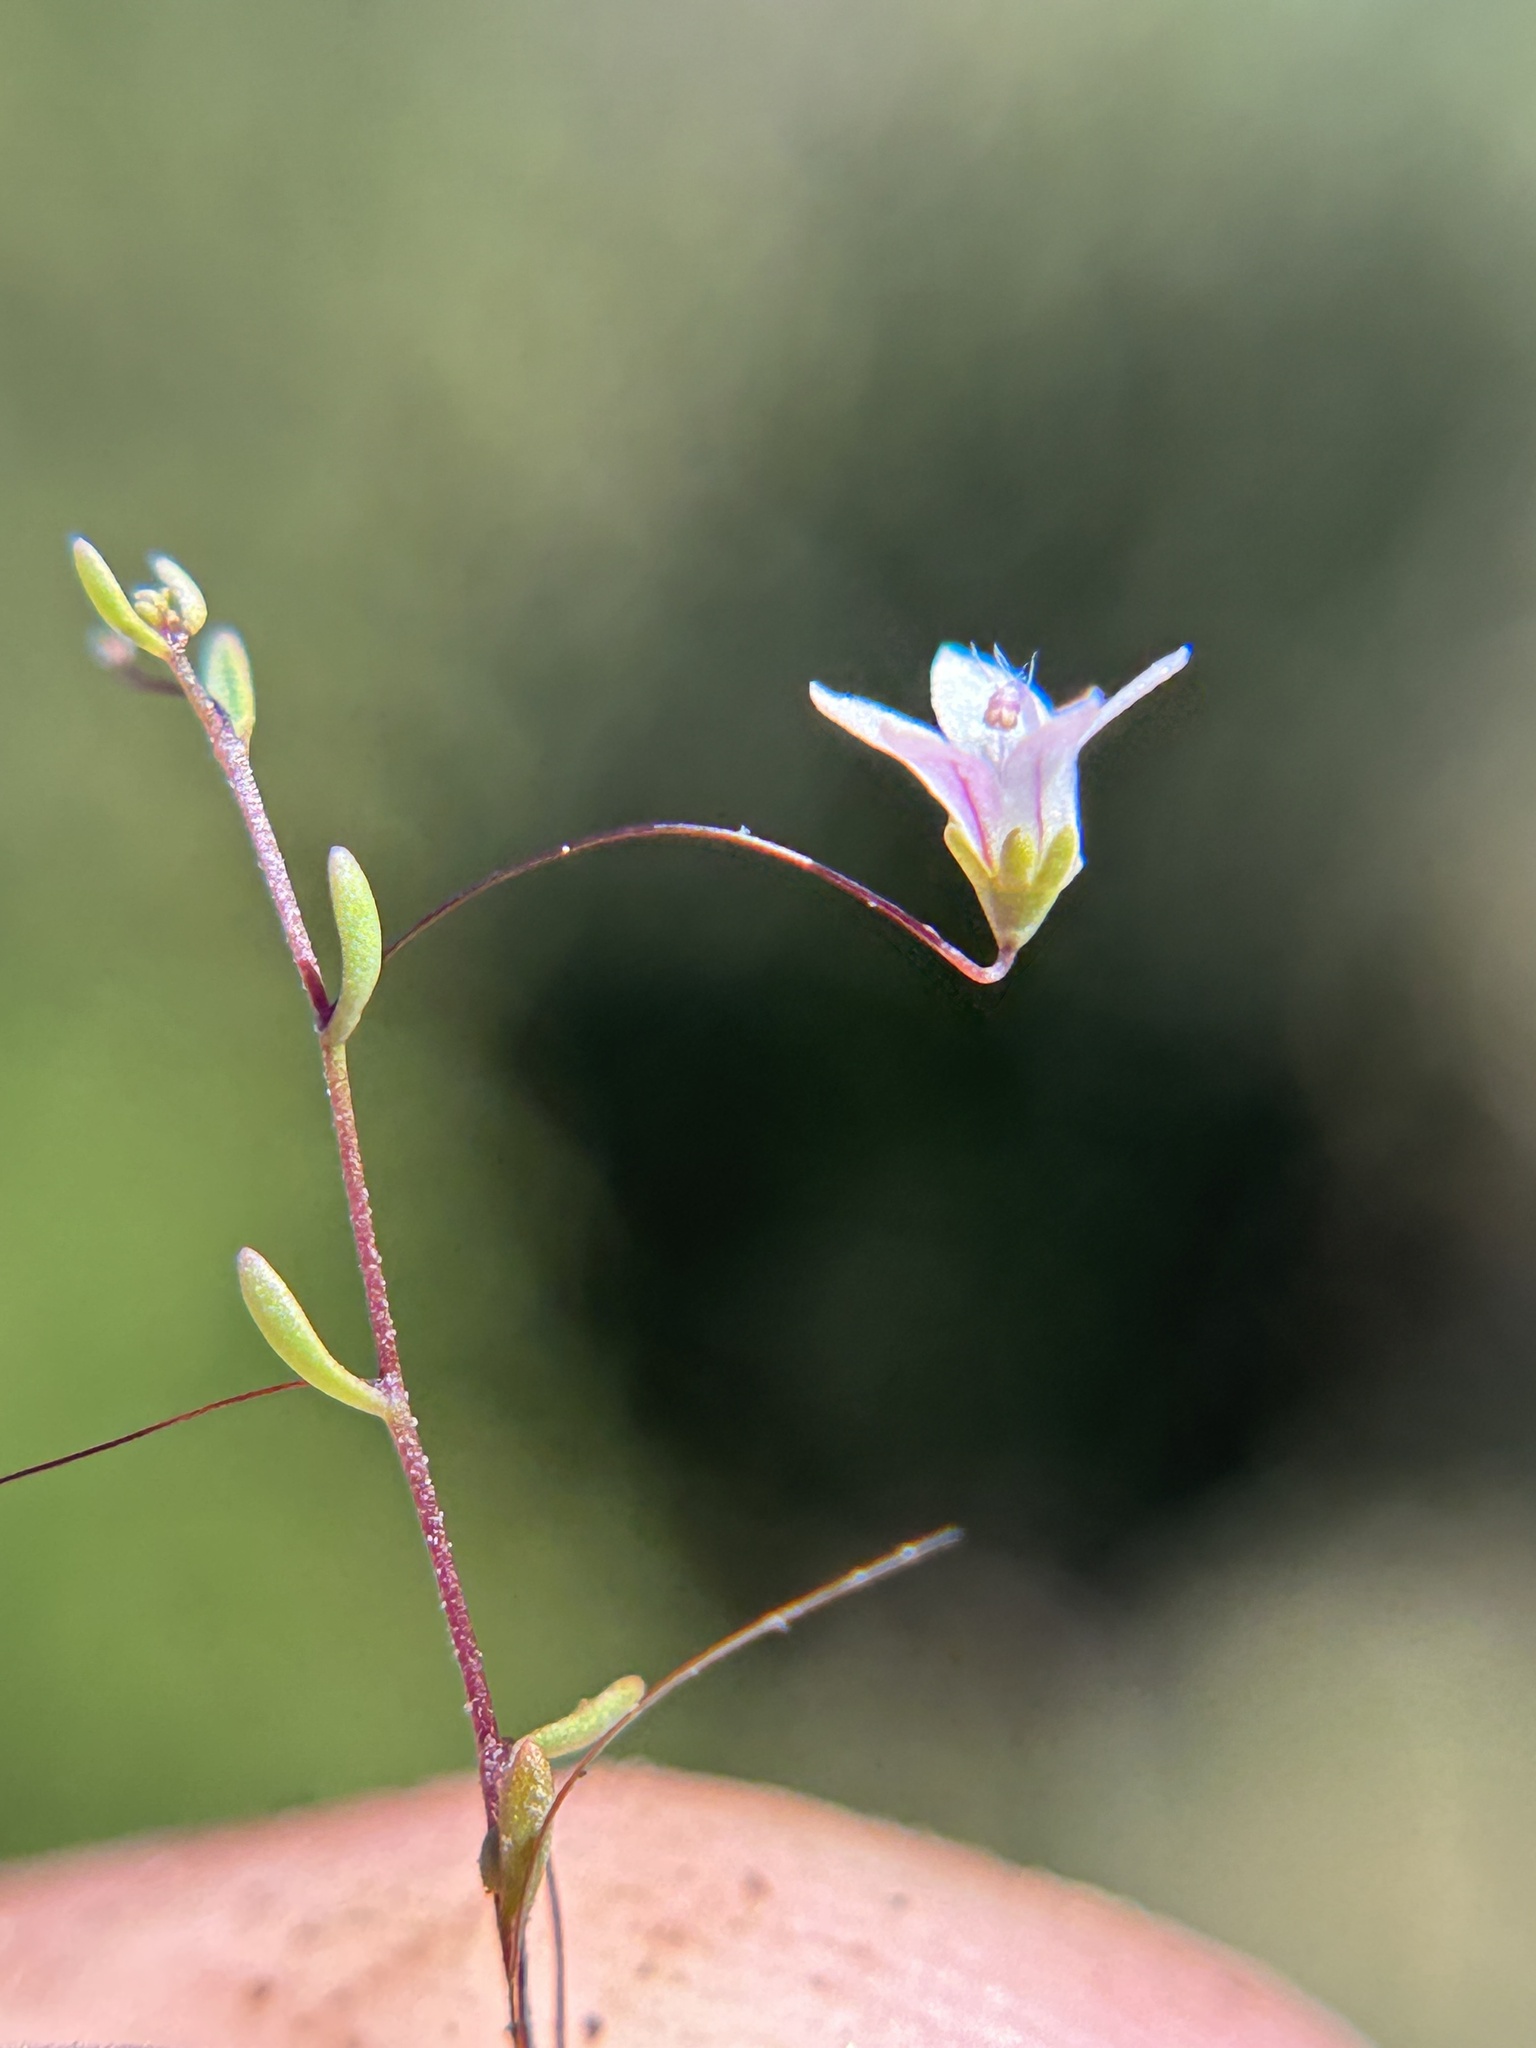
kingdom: Plantae
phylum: Tracheophyta
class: Magnoliopsida
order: Asterales
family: Campanulaceae
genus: Nemacladus
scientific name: Nemacladus ramosissimus
